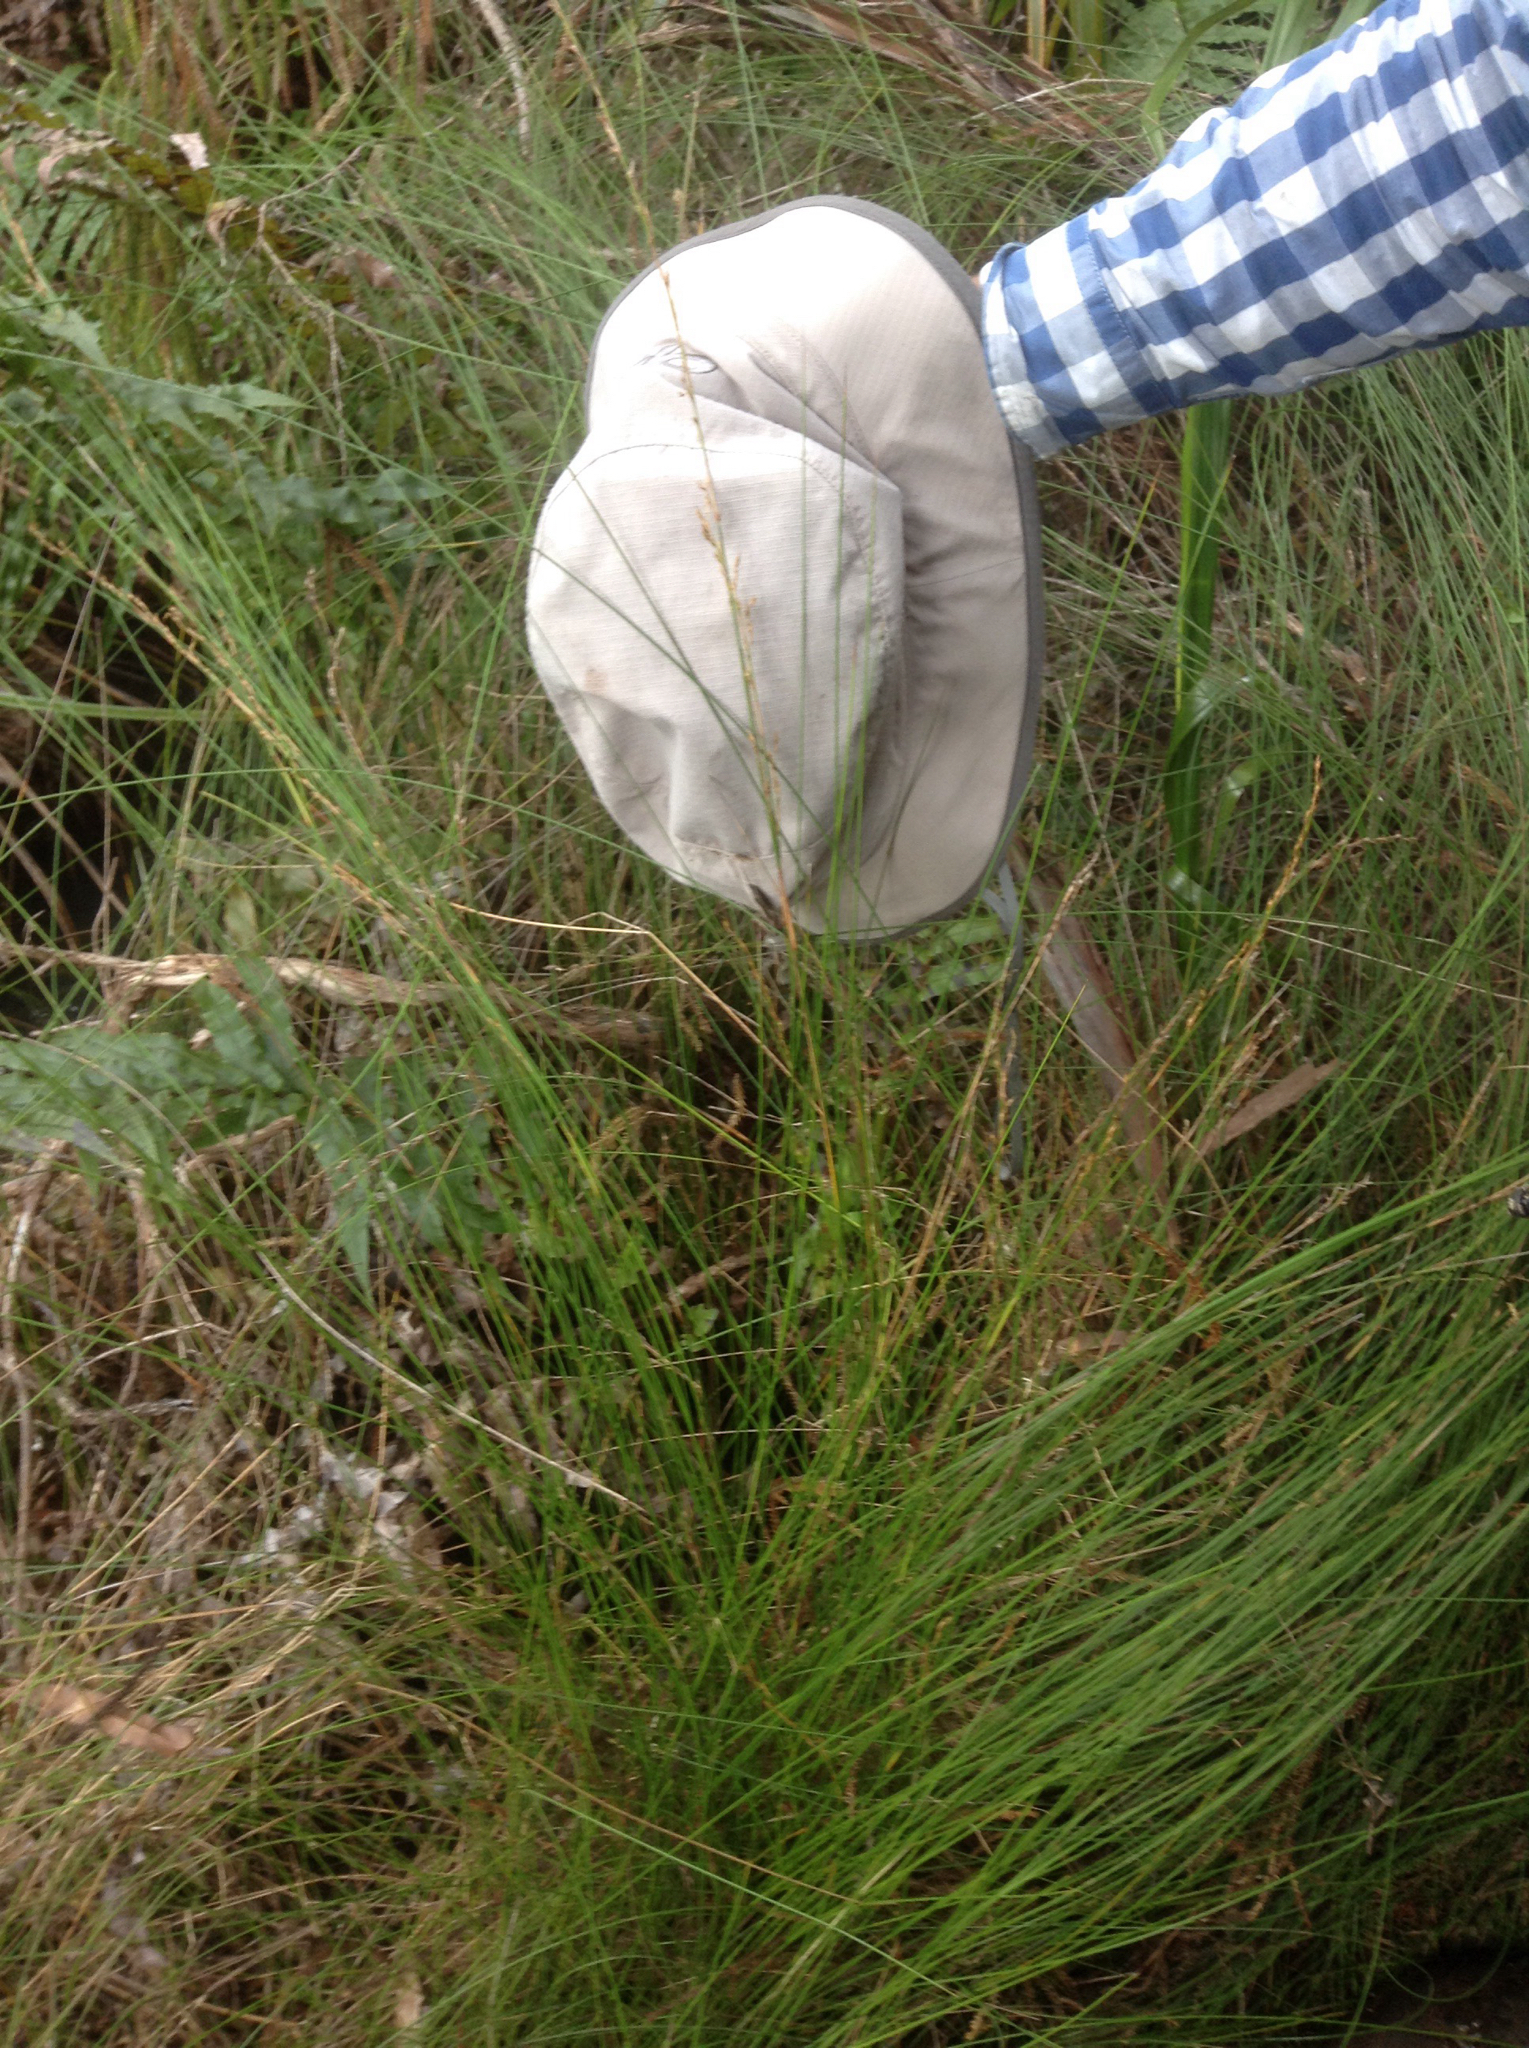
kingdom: Plantae
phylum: Tracheophyta
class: Liliopsida
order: Poales
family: Cyperaceae
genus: Machaerina
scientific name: Machaerina tenax
